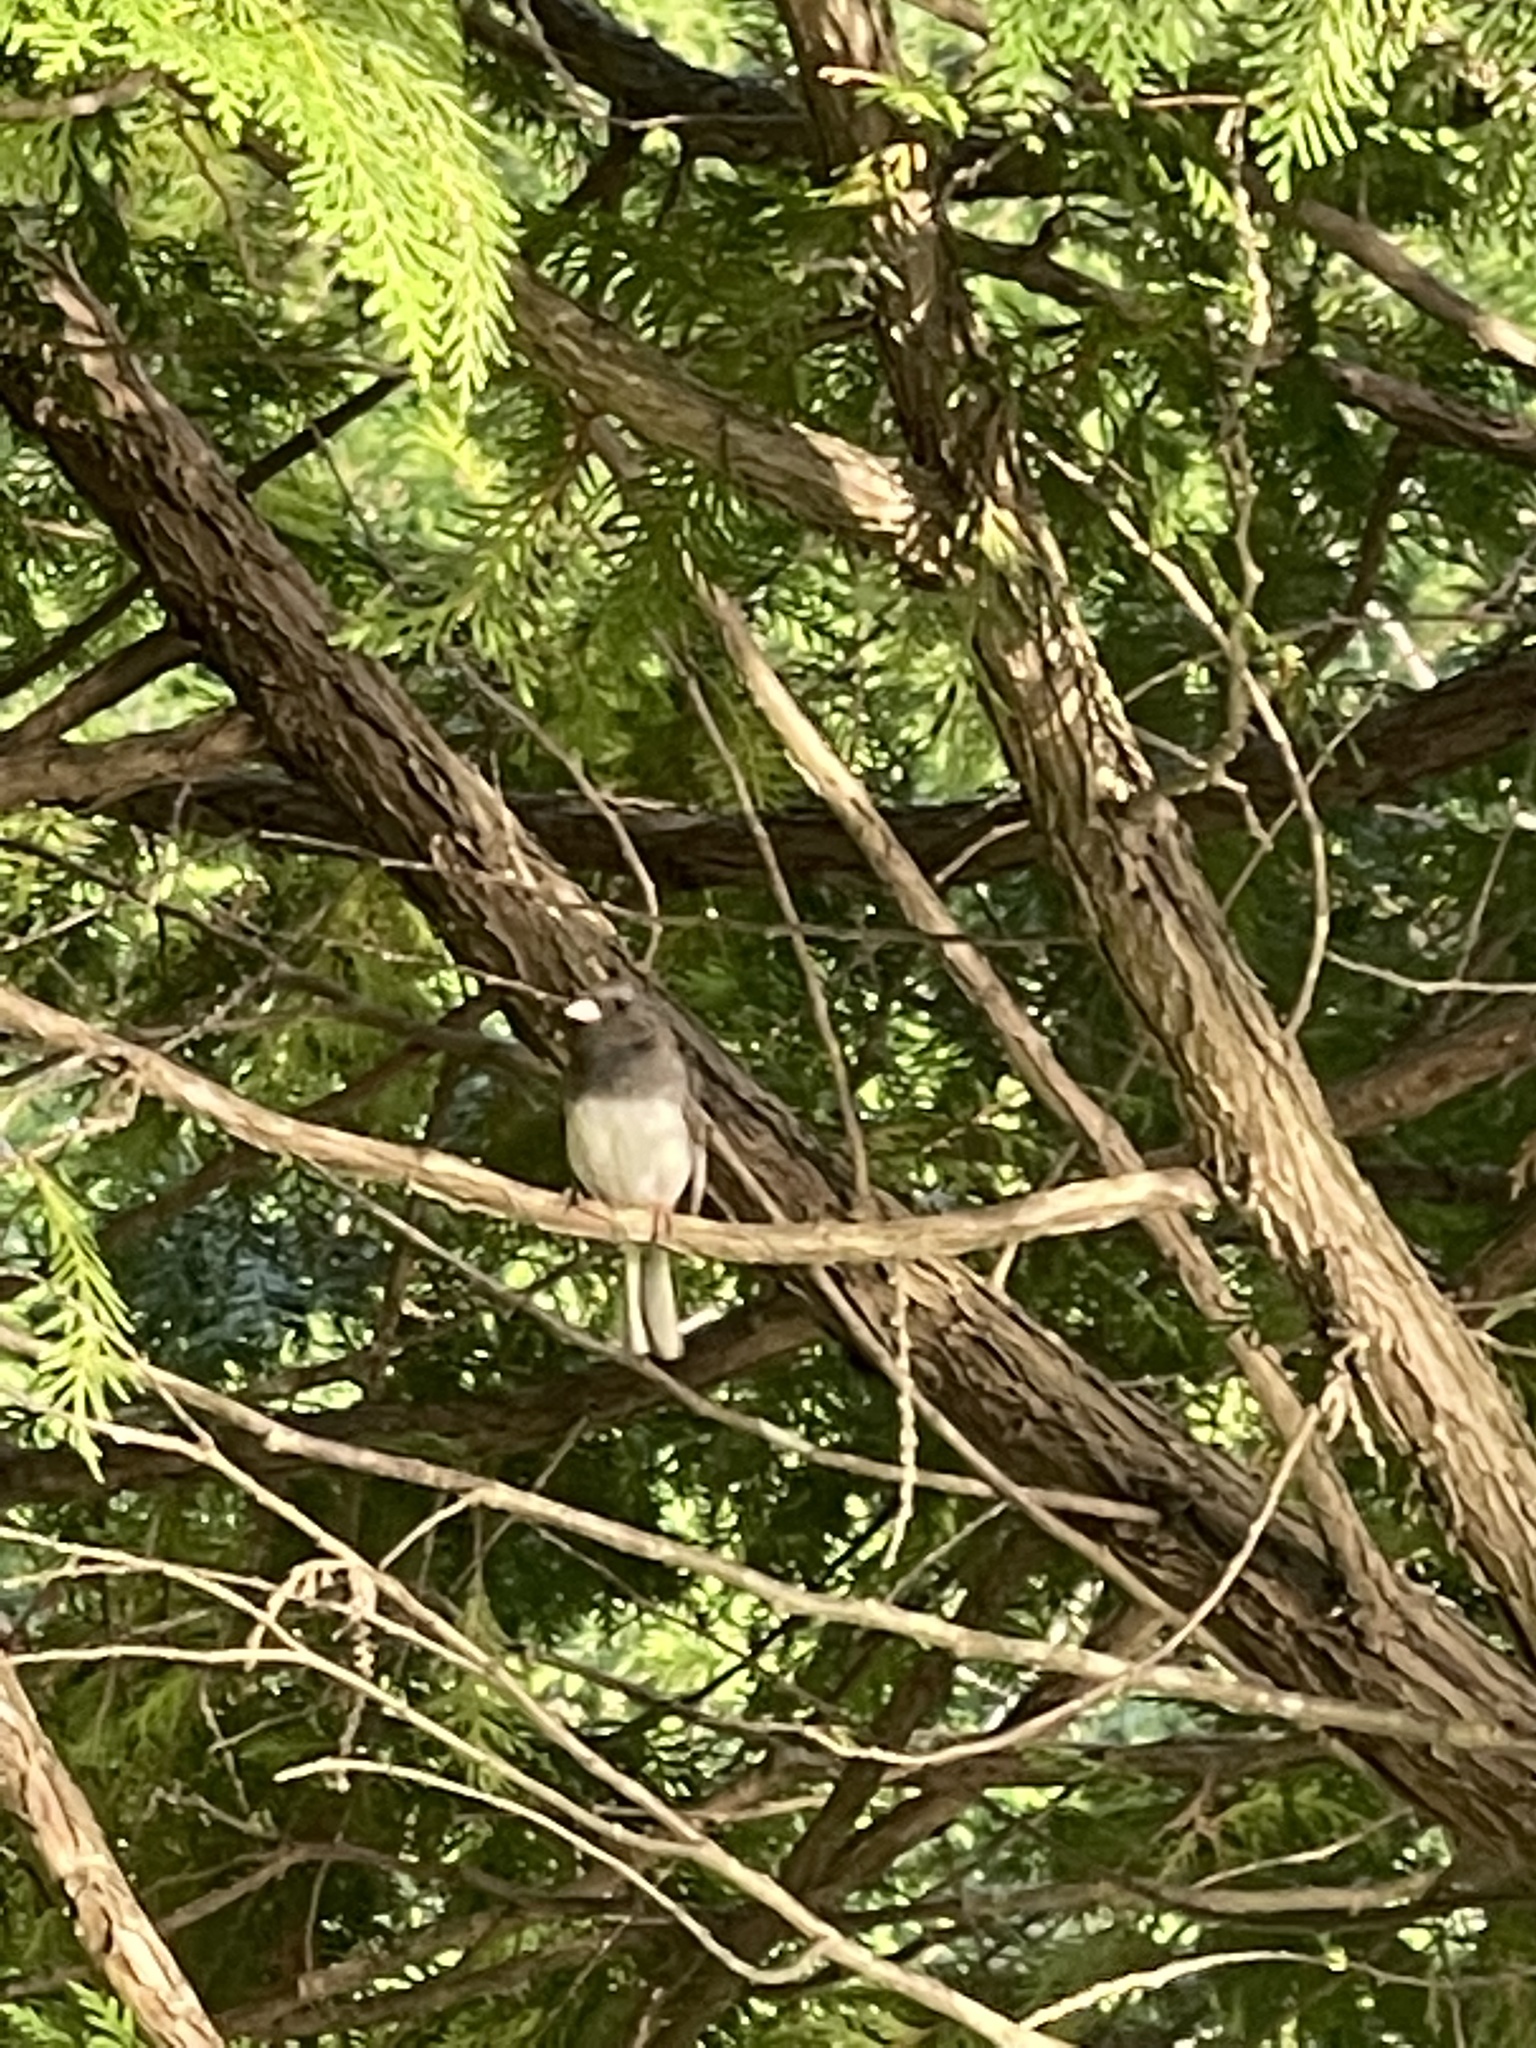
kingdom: Animalia
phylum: Chordata
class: Aves
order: Passeriformes
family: Passerellidae
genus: Junco
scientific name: Junco hyemalis
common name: Dark-eyed junco
